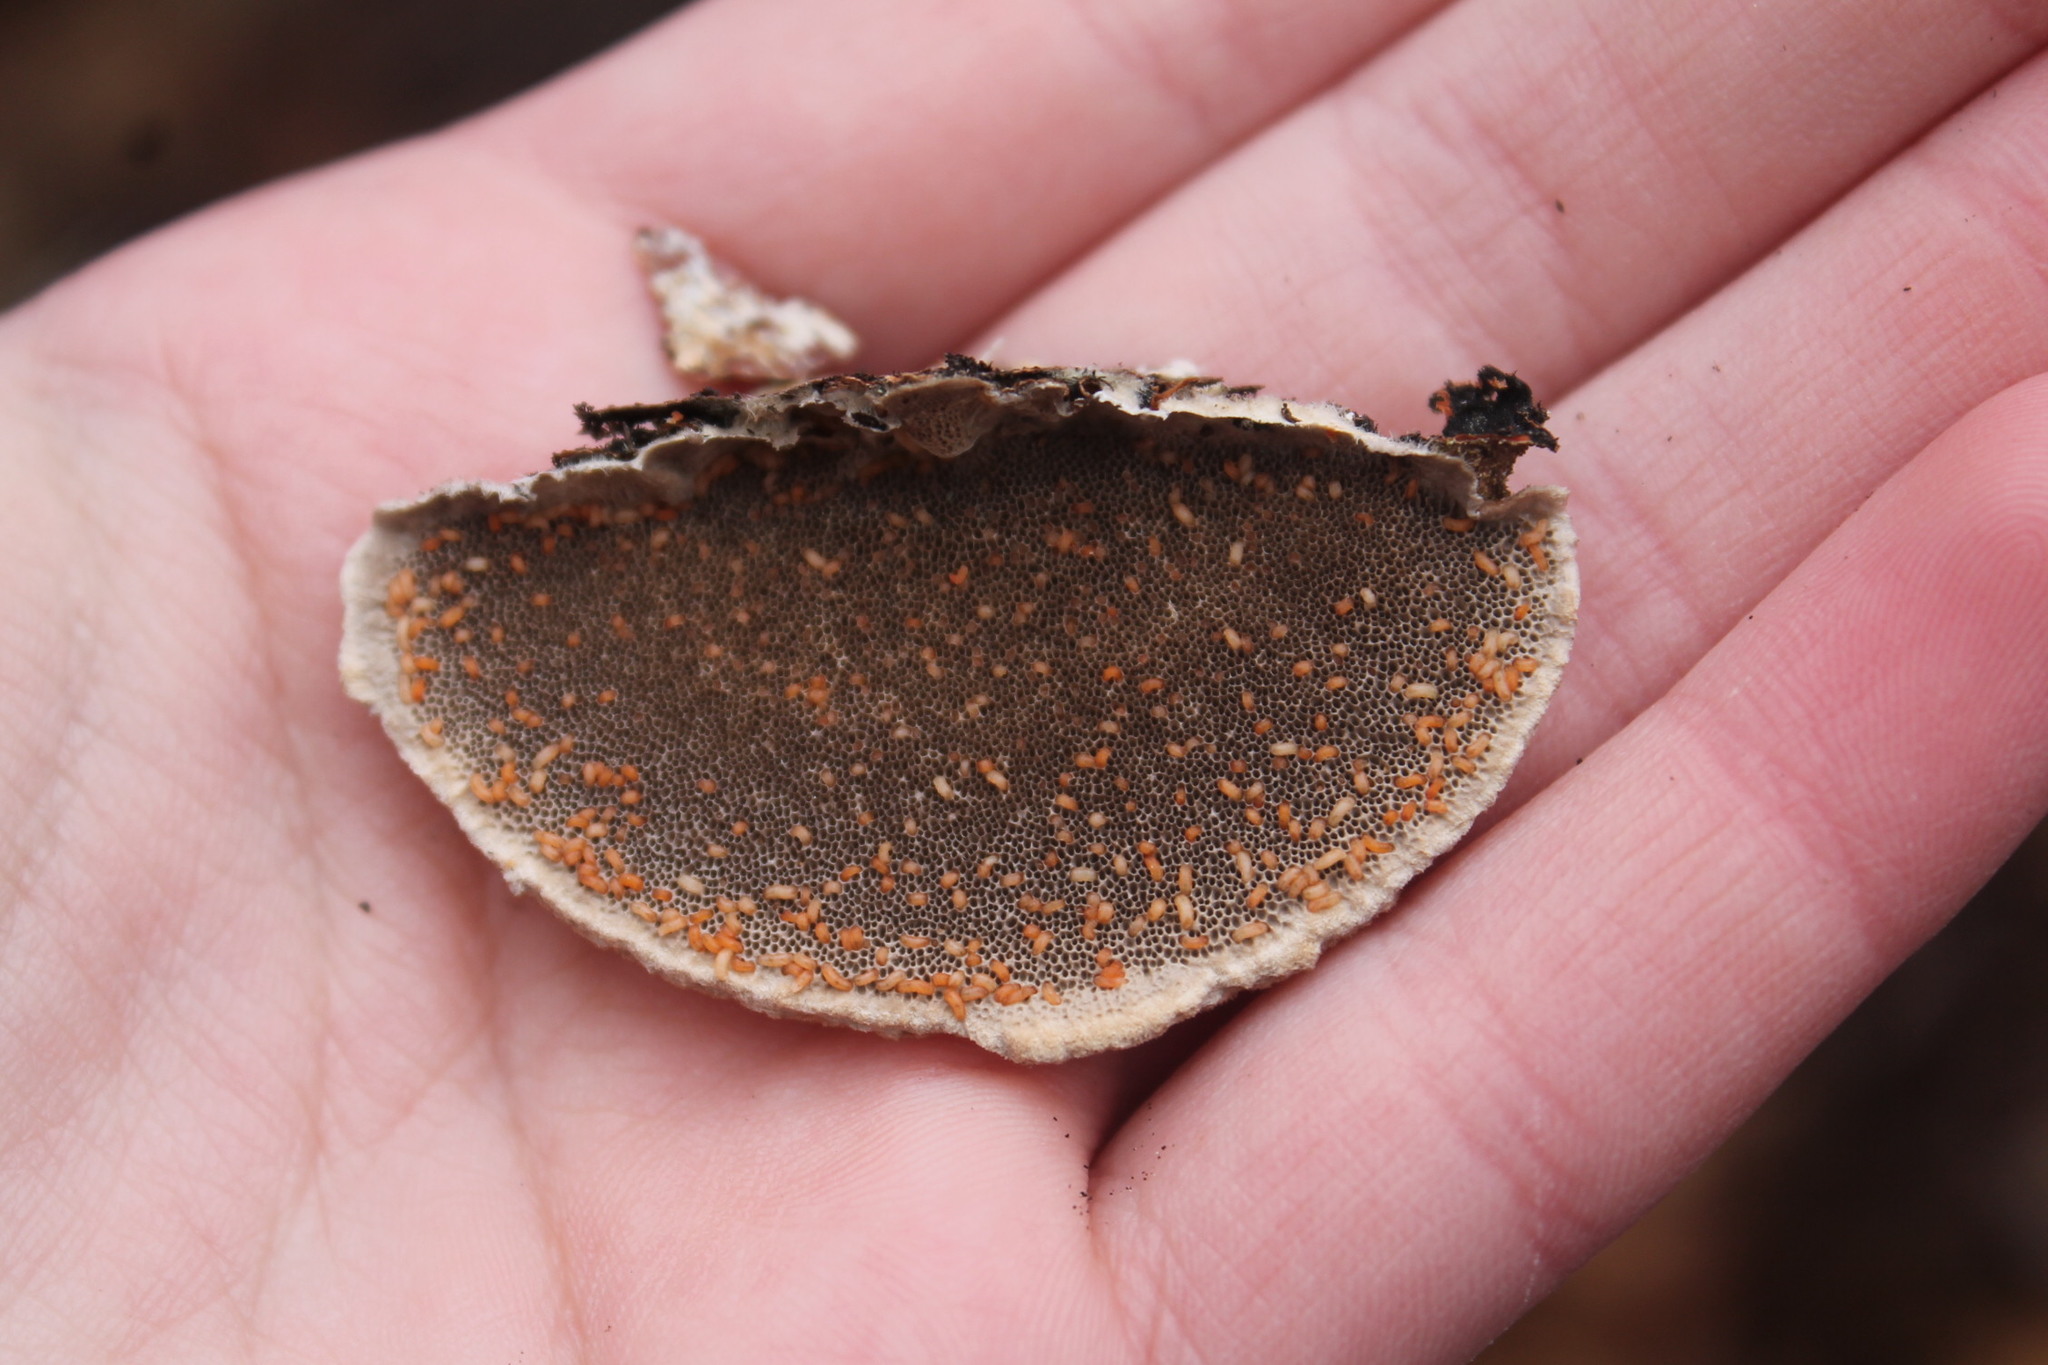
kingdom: Fungi
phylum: Basidiomycota
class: Agaricomycetes
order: Polyporales
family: Polyporaceae
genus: Trametes
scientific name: Trametes hirsuta
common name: Hairy bracket
